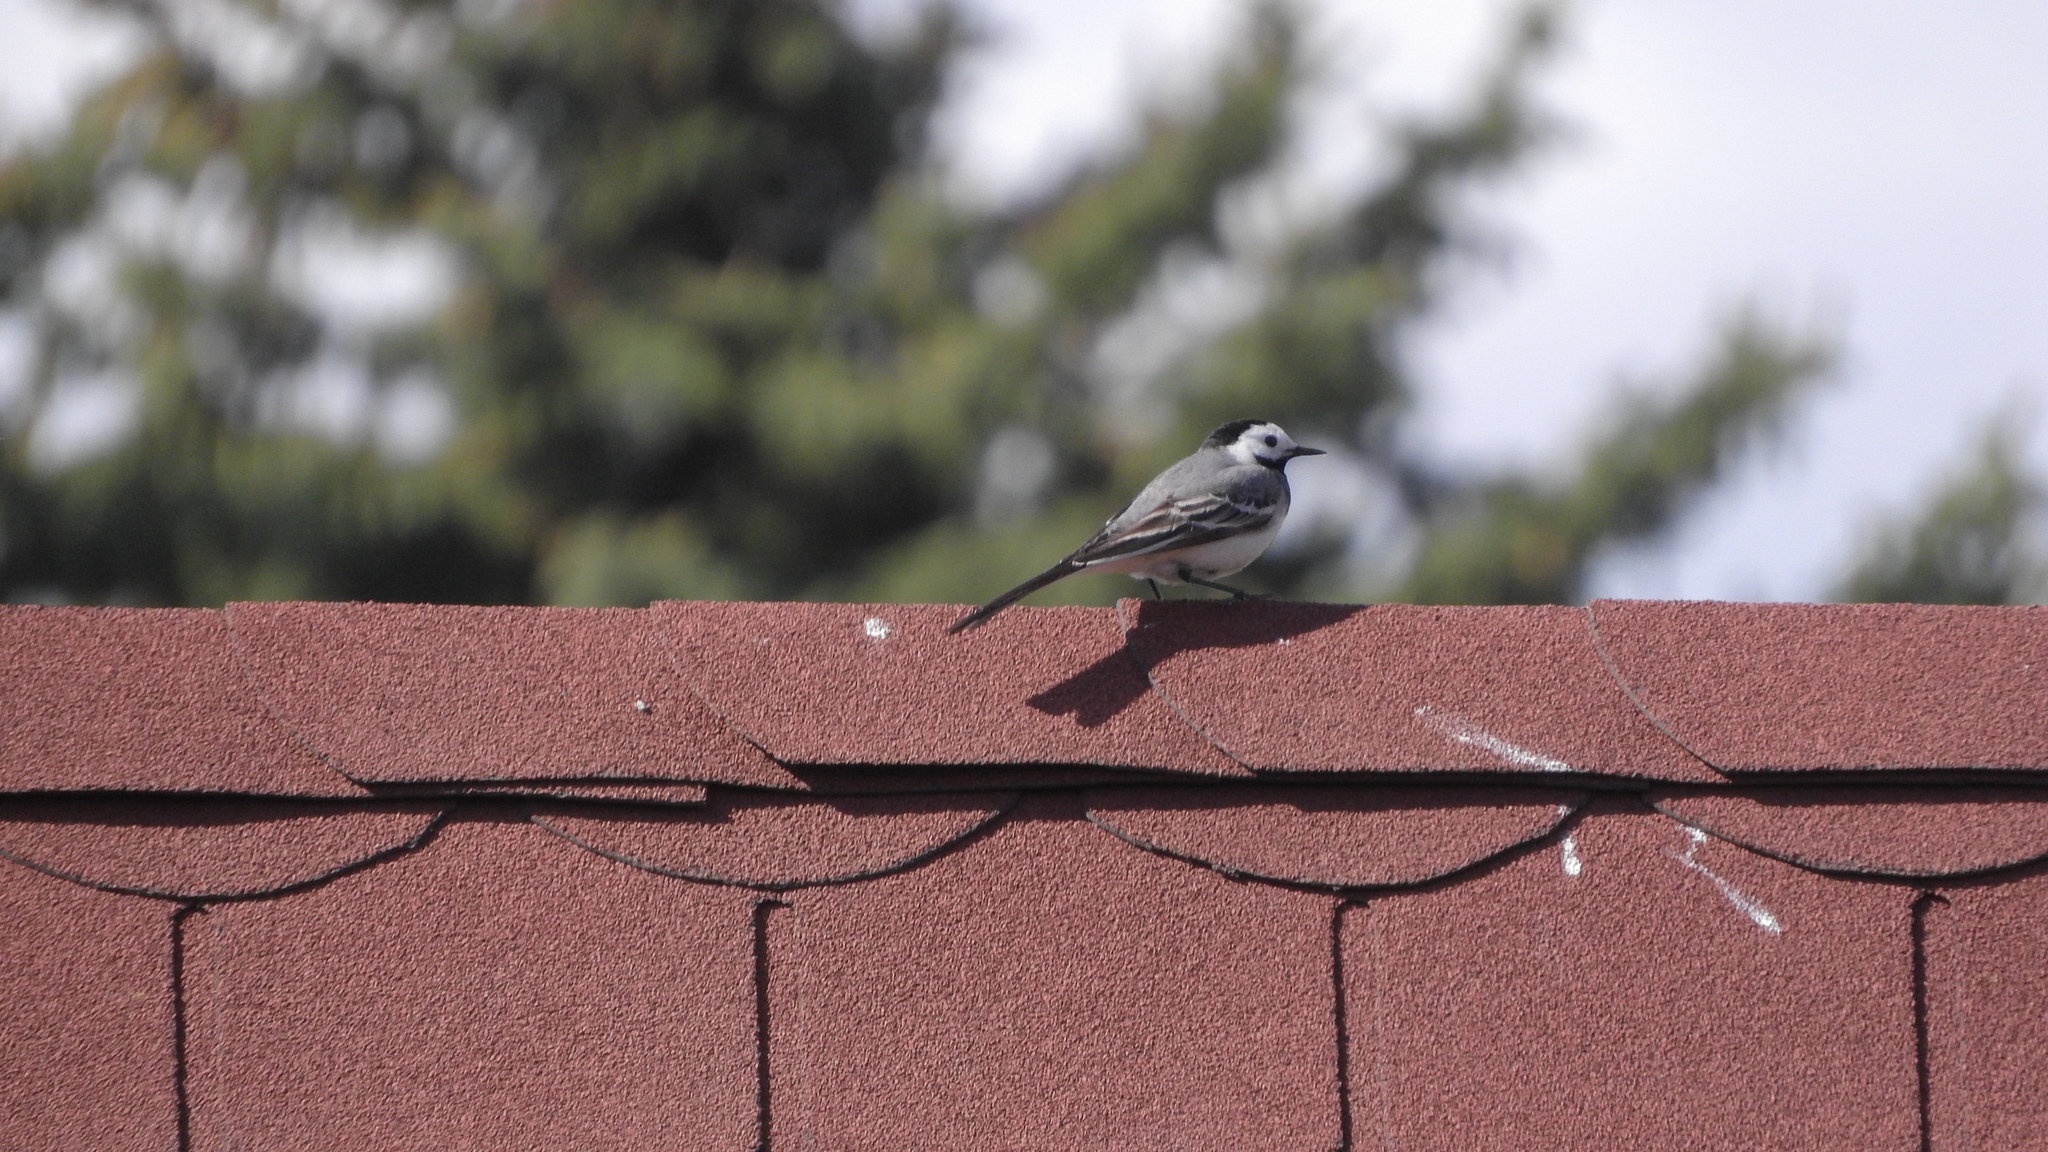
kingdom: Animalia
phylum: Chordata
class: Aves
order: Passeriformes
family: Motacillidae
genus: Motacilla
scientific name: Motacilla alba
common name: White wagtail
